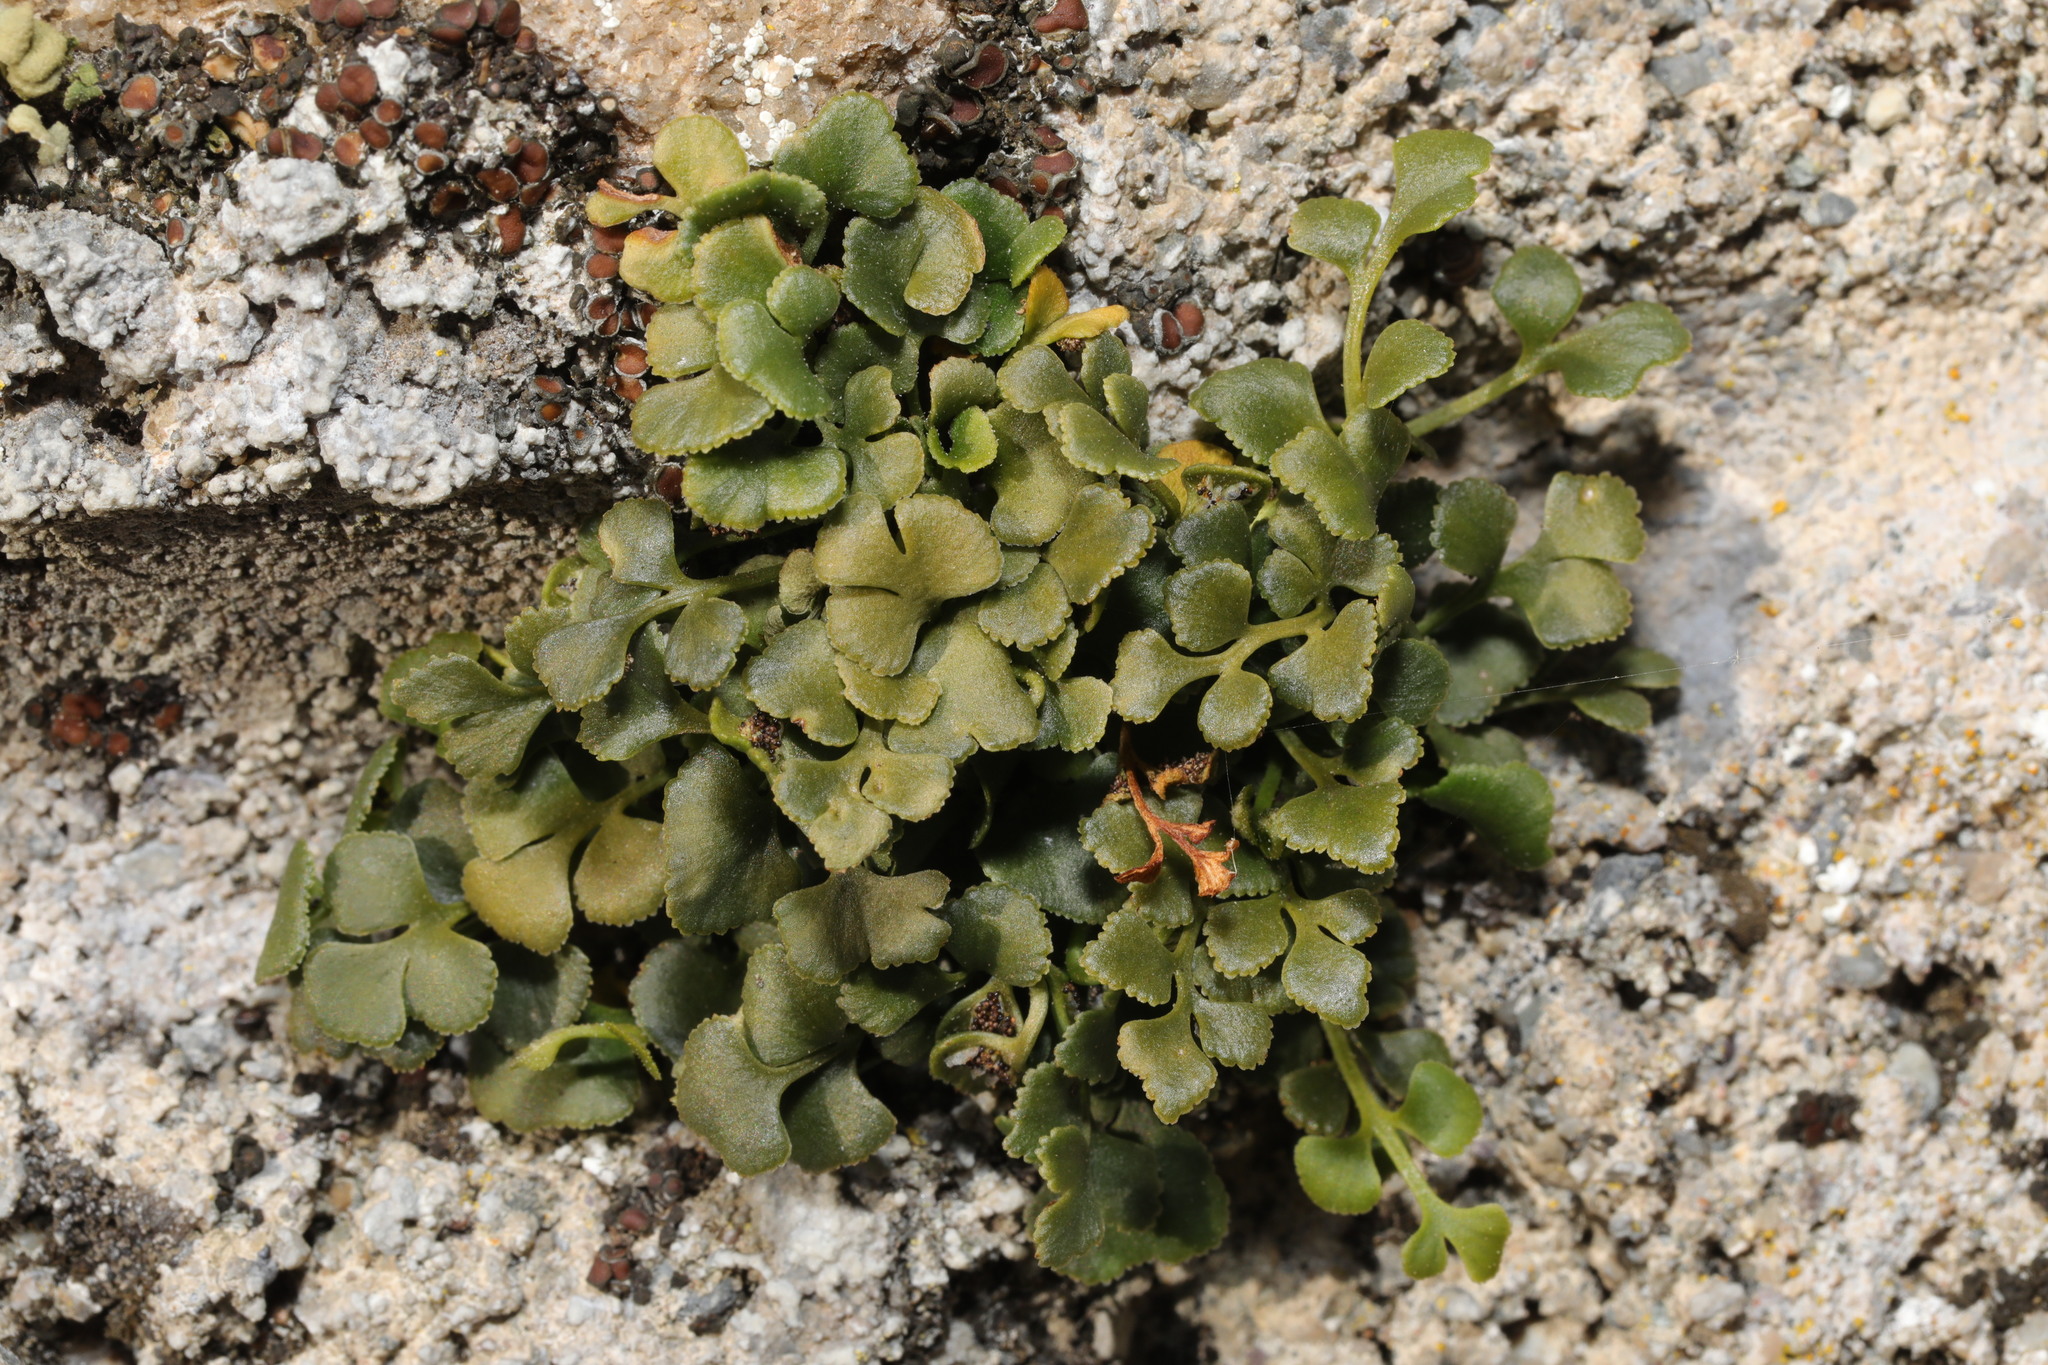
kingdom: Plantae
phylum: Tracheophyta
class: Polypodiopsida
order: Polypodiales
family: Aspleniaceae
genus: Asplenium
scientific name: Asplenium ruta-muraria
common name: Wall-rue
